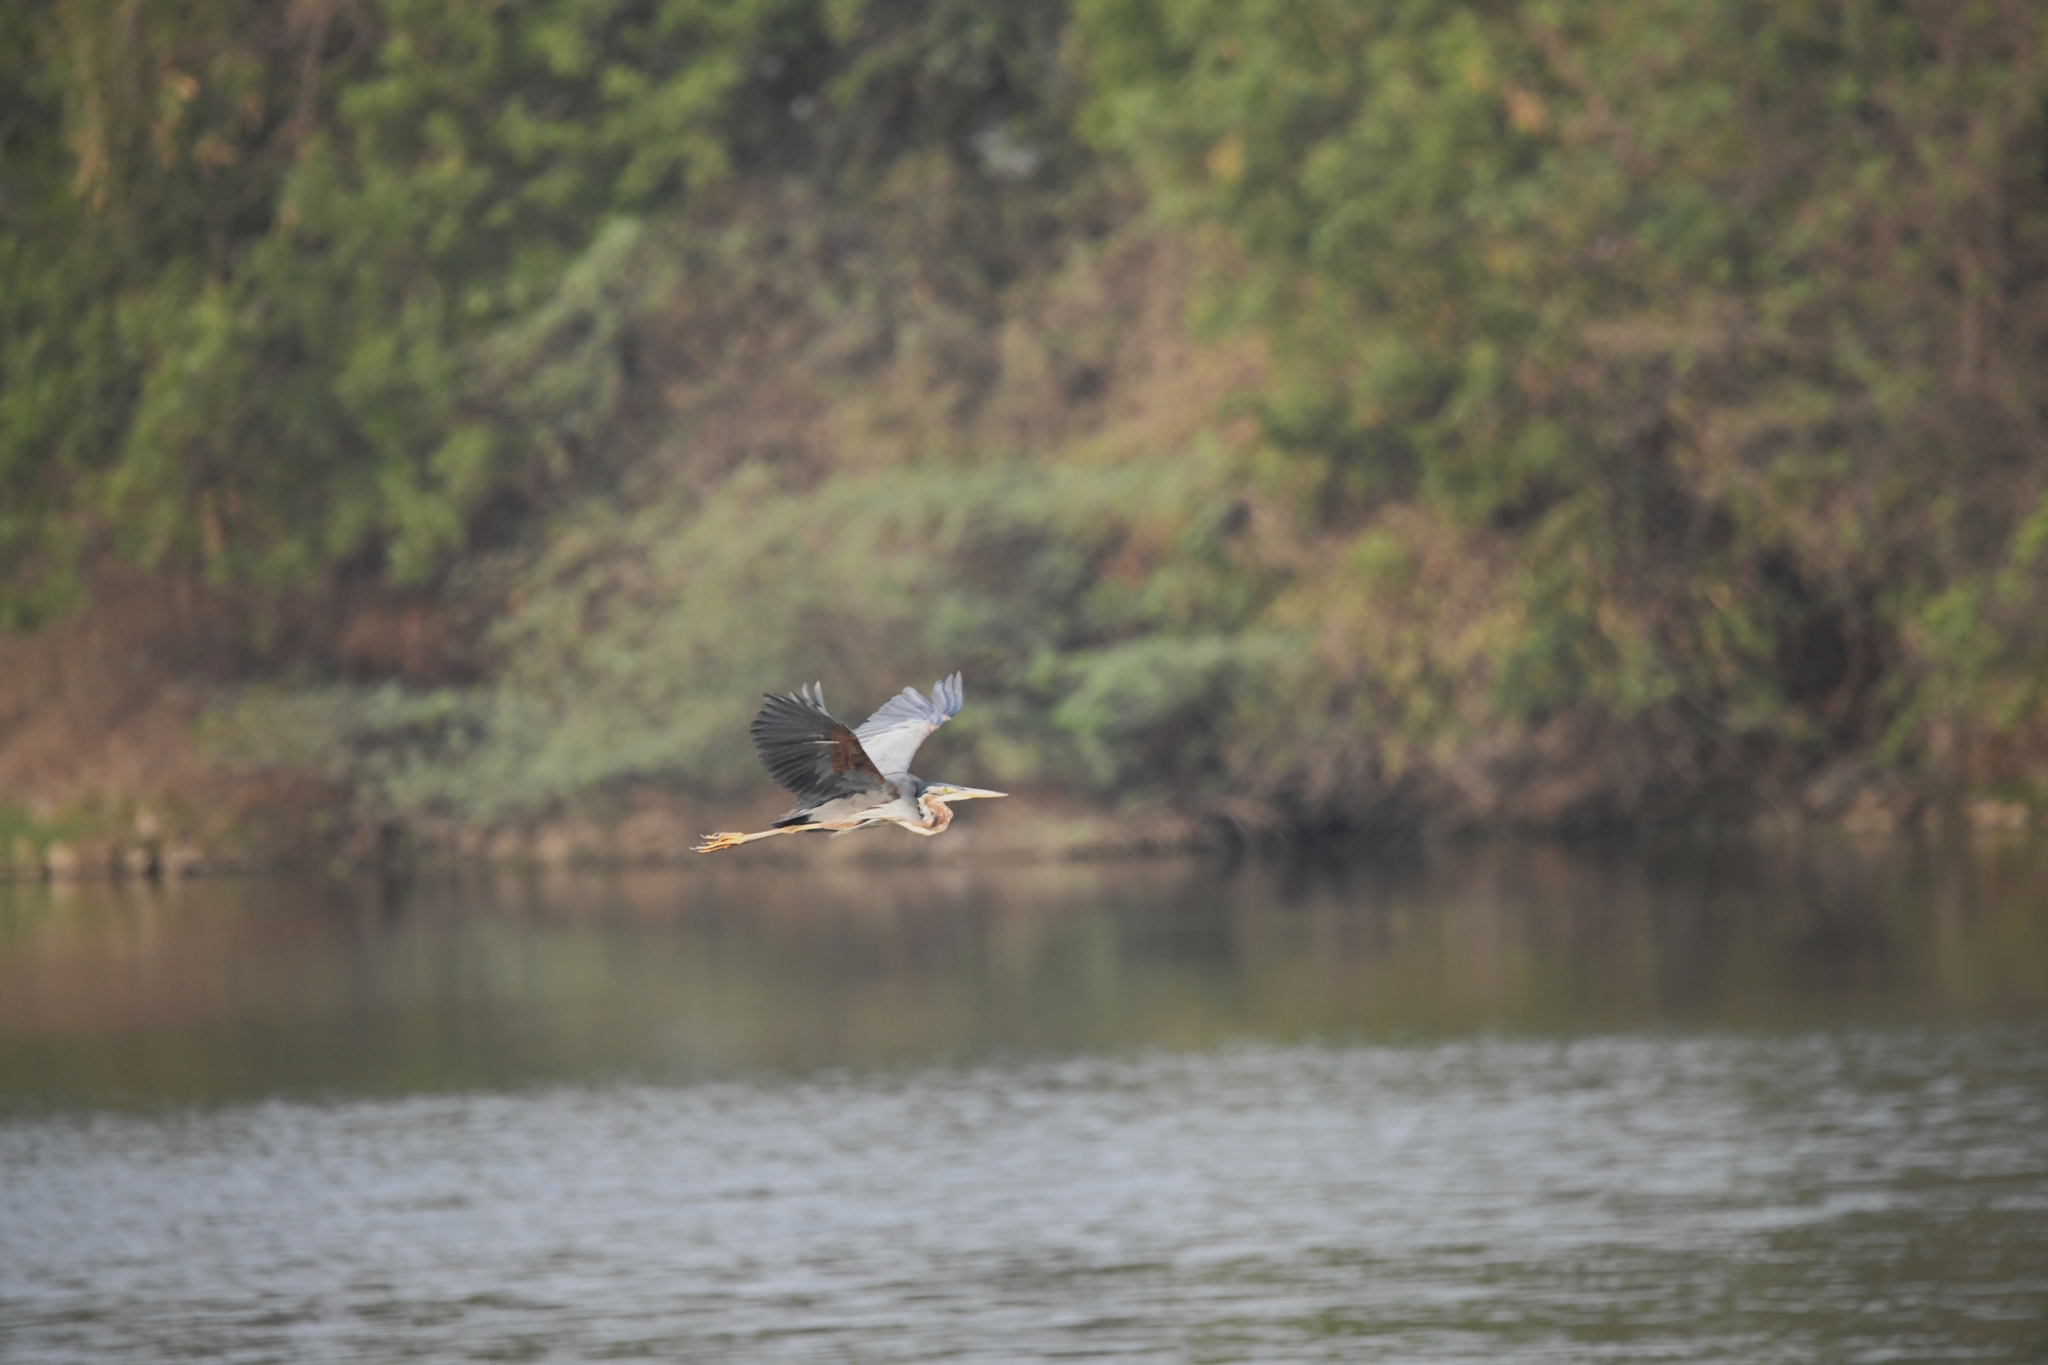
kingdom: Animalia
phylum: Chordata
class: Aves
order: Pelecaniformes
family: Ardeidae
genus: Ardea
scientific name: Ardea purpurea
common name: Purple heron
